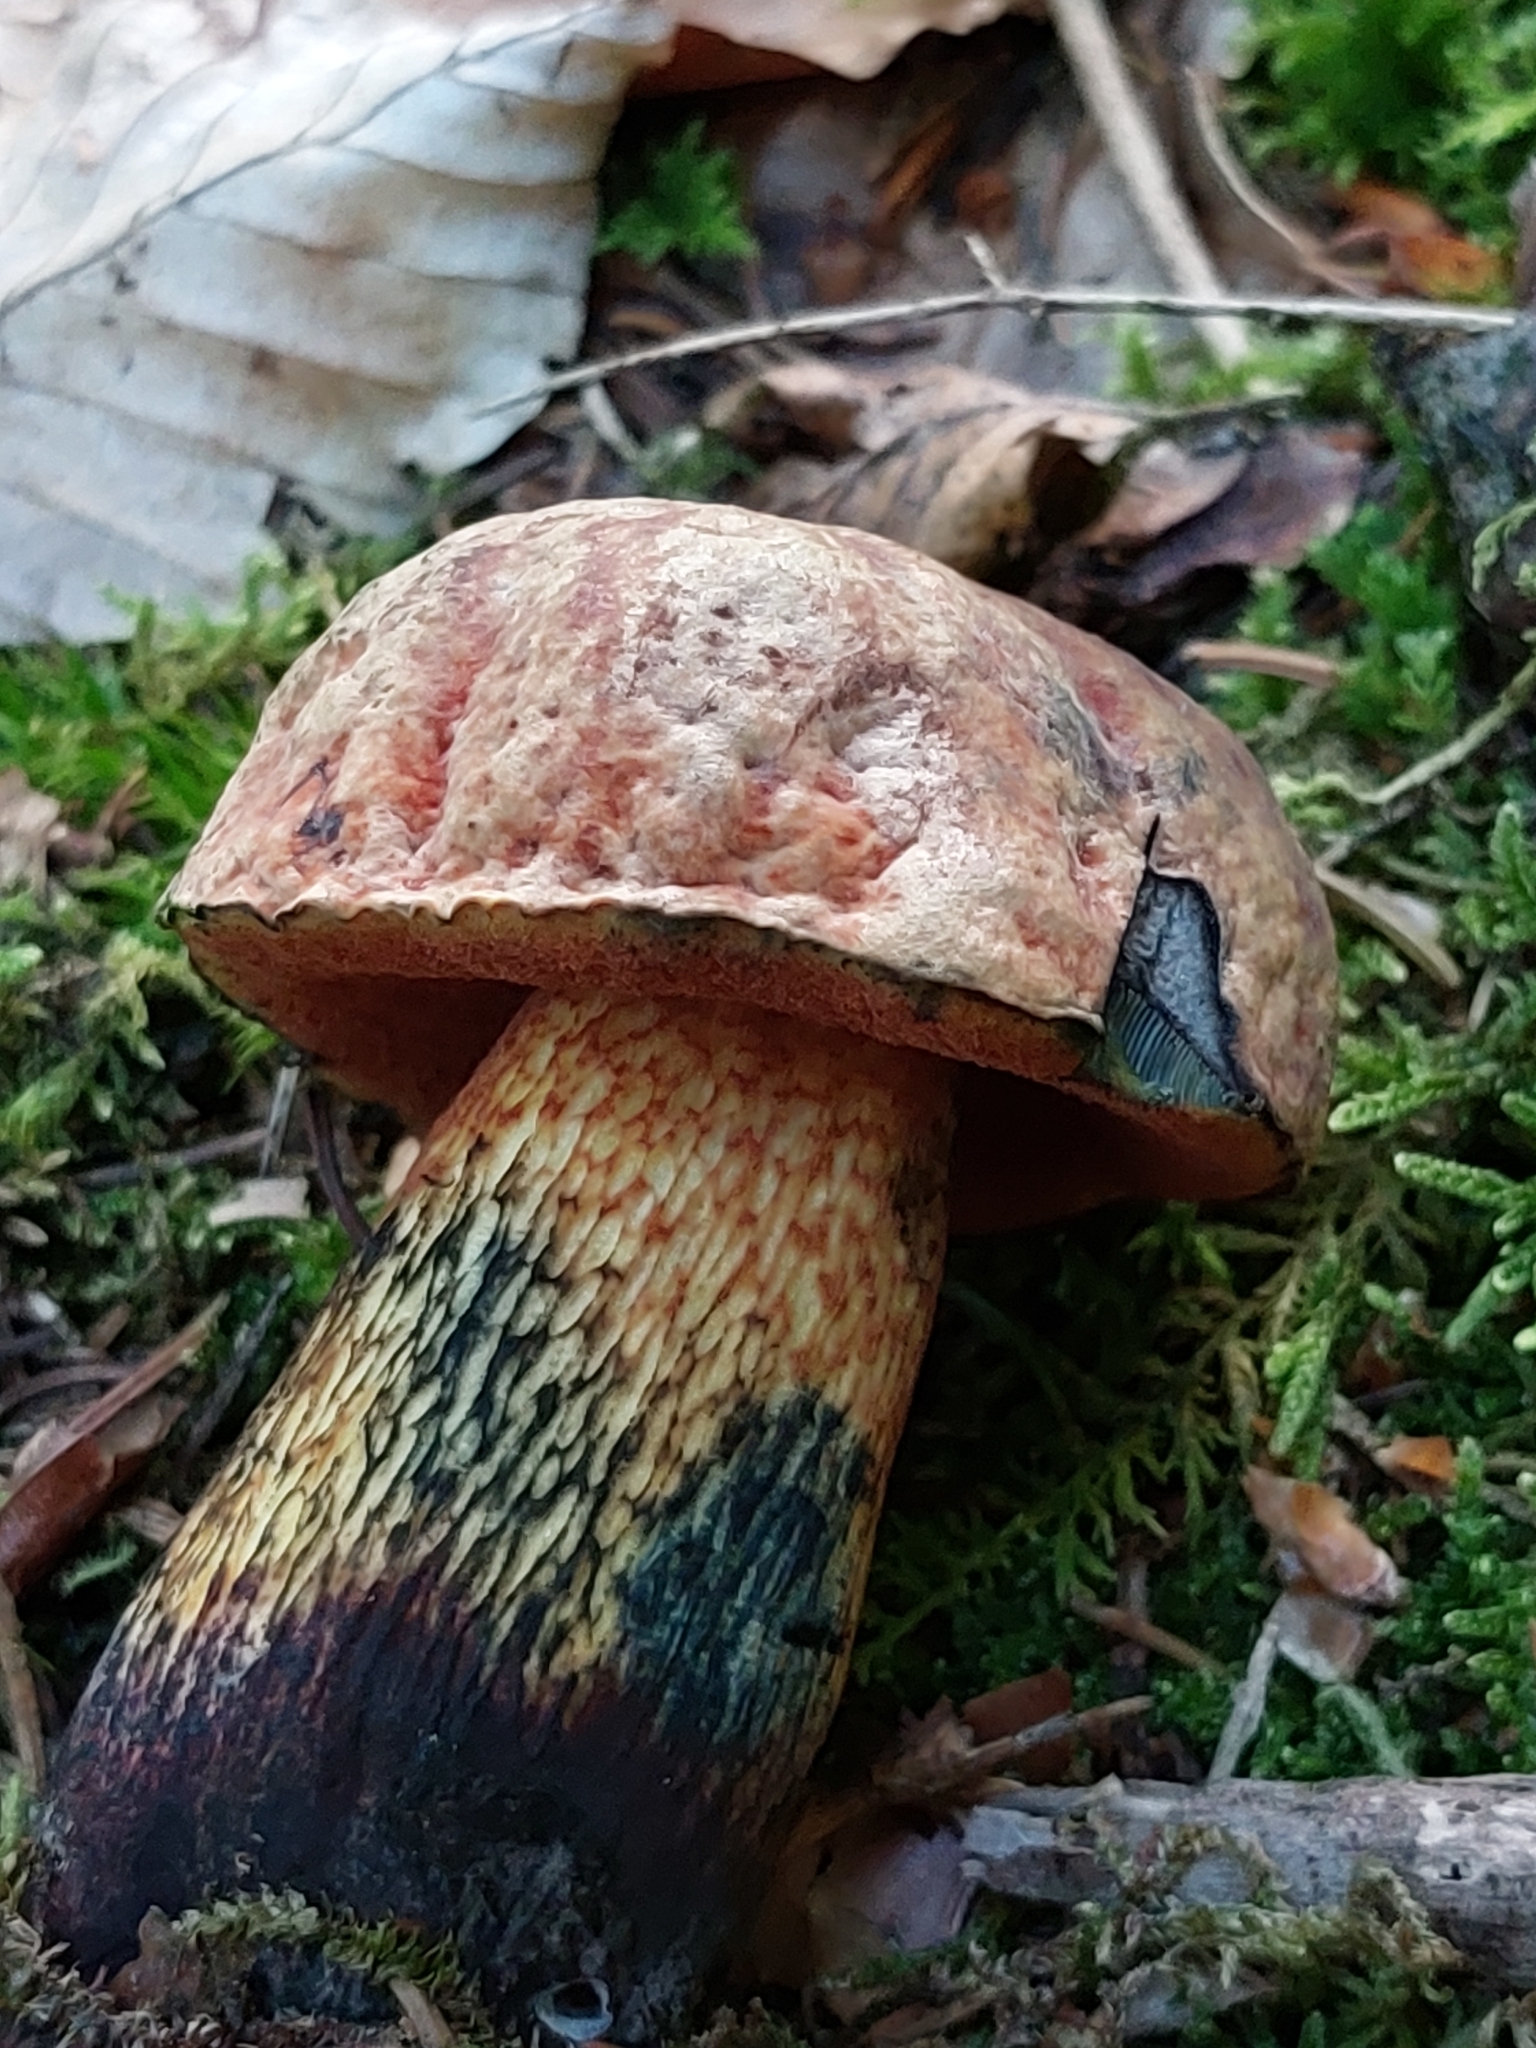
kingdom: Fungi
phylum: Basidiomycota
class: Agaricomycetes
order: Boletales
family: Boletaceae
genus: Suillellus
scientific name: Suillellus luridus
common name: Lurid bolete
